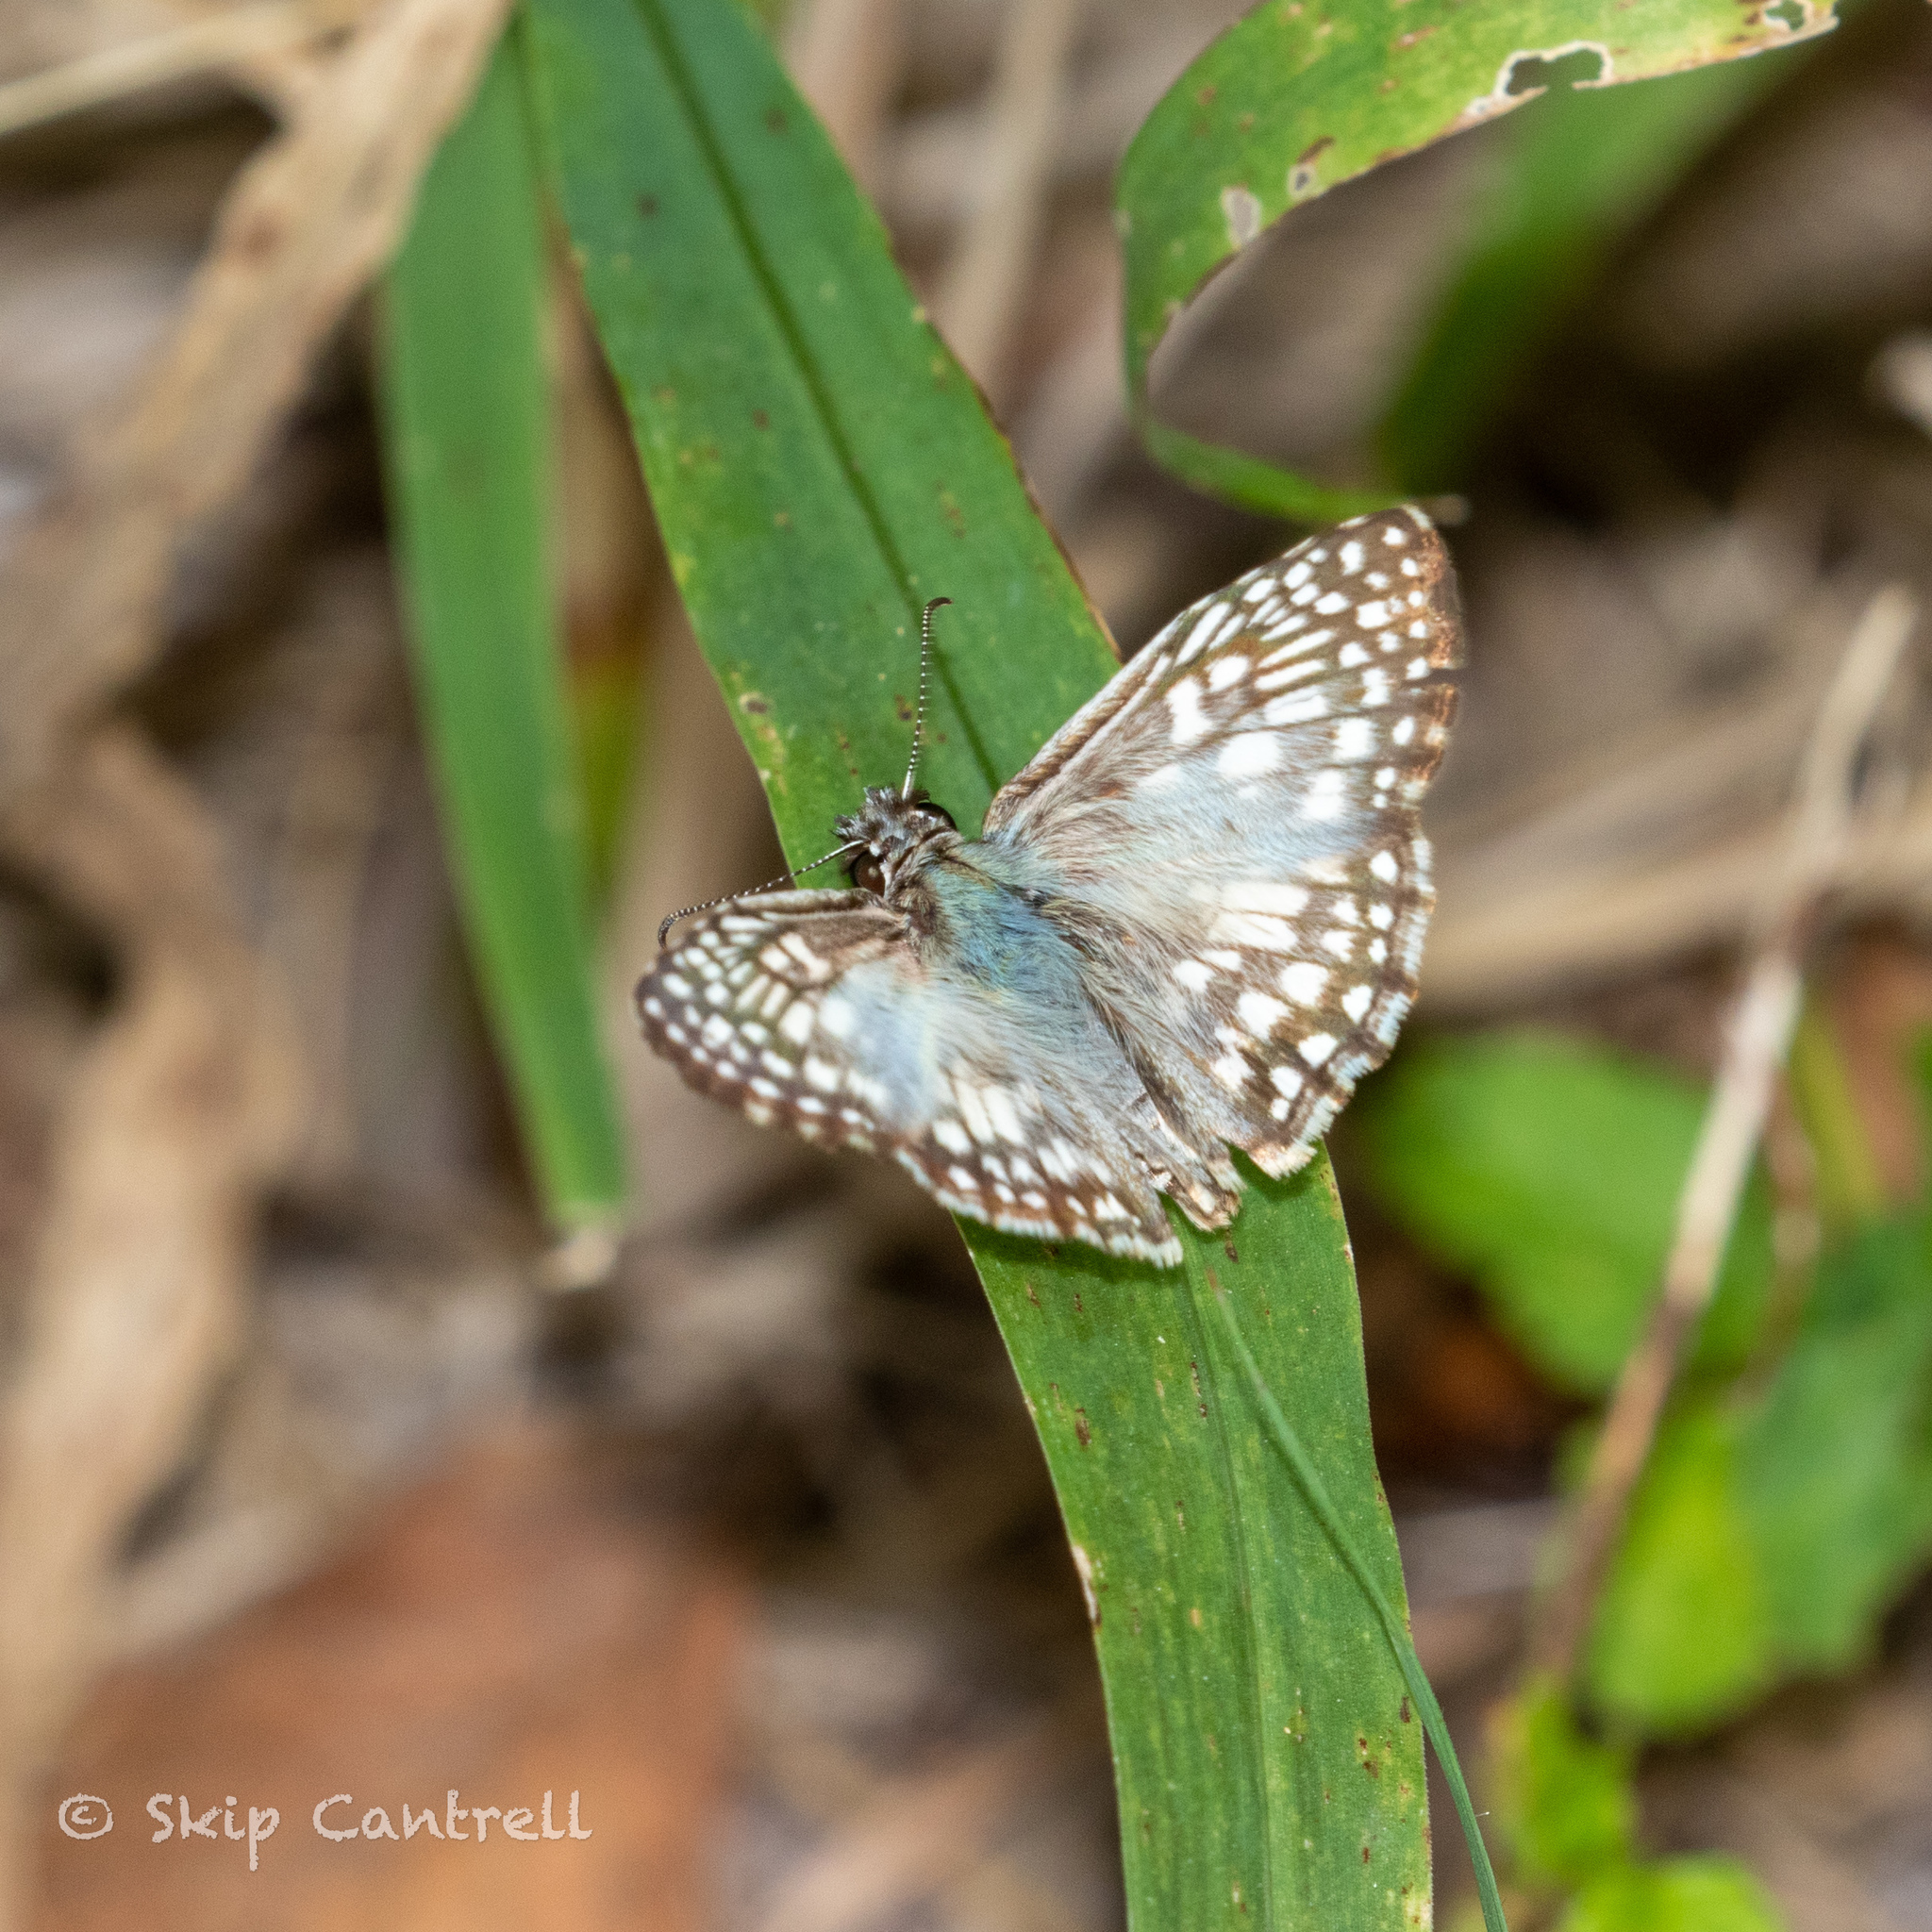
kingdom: Animalia
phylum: Arthropoda
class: Insecta
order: Lepidoptera
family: Hesperiidae
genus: Pyrgus
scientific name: Pyrgus oileus
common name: Tropical checkered-skipper
